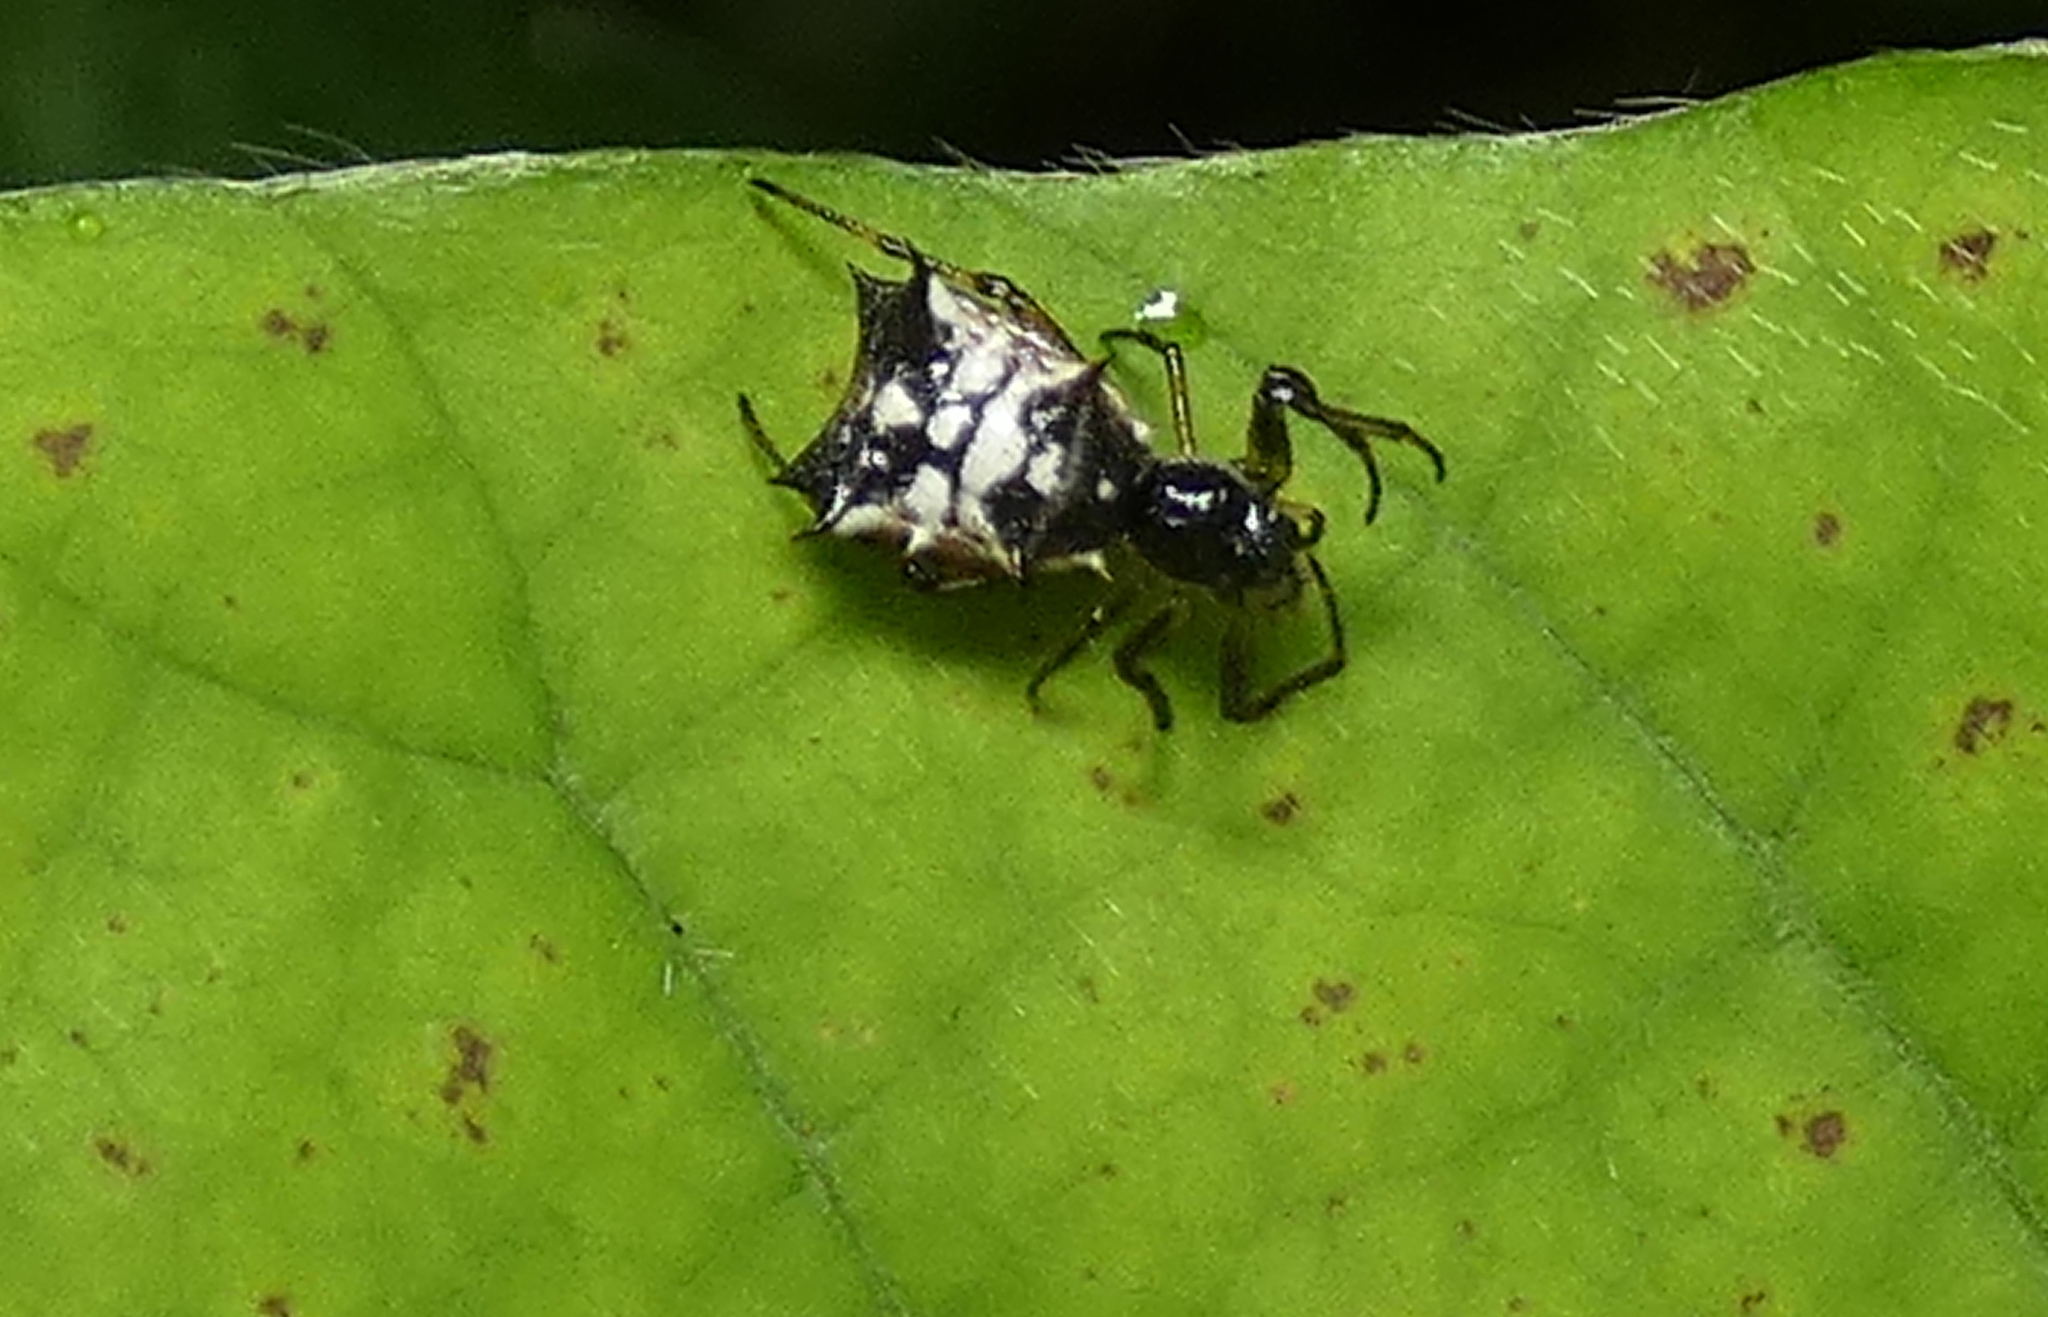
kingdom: Animalia
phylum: Arthropoda
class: Arachnida
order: Araneae
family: Araneidae
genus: Micrathena
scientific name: Micrathena picta
